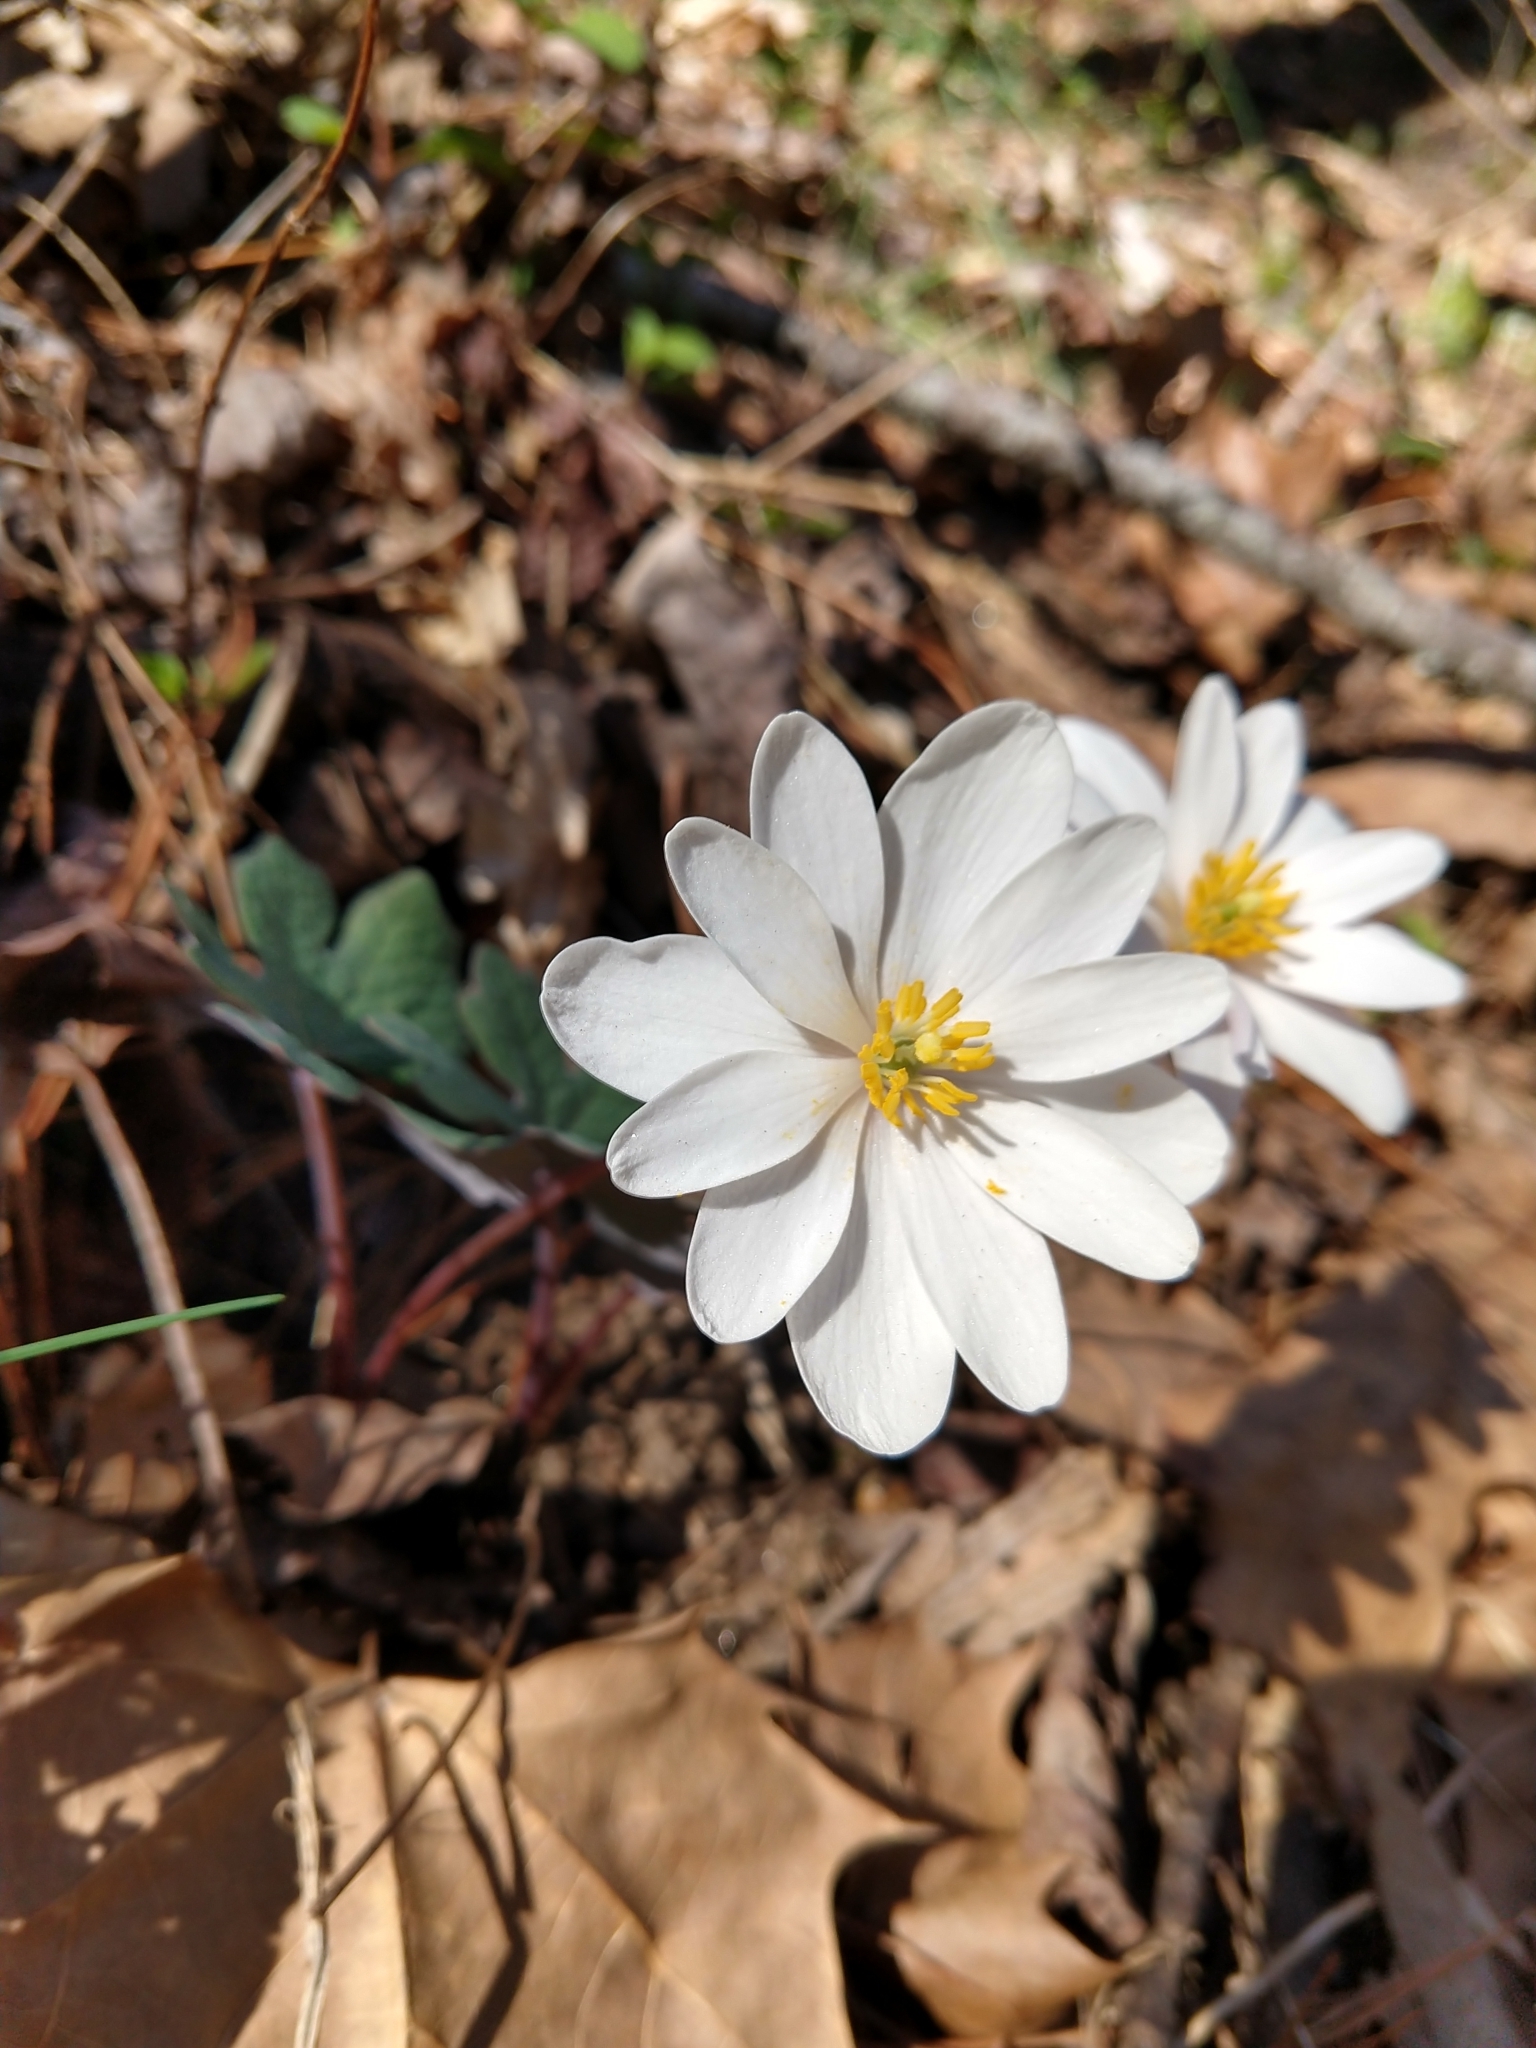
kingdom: Plantae
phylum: Tracheophyta
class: Magnoliopsida
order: Ranunculales
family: Papaveraceae
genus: Sanguinaria
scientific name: Sanguinaria canadensis
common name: Bloodroot
